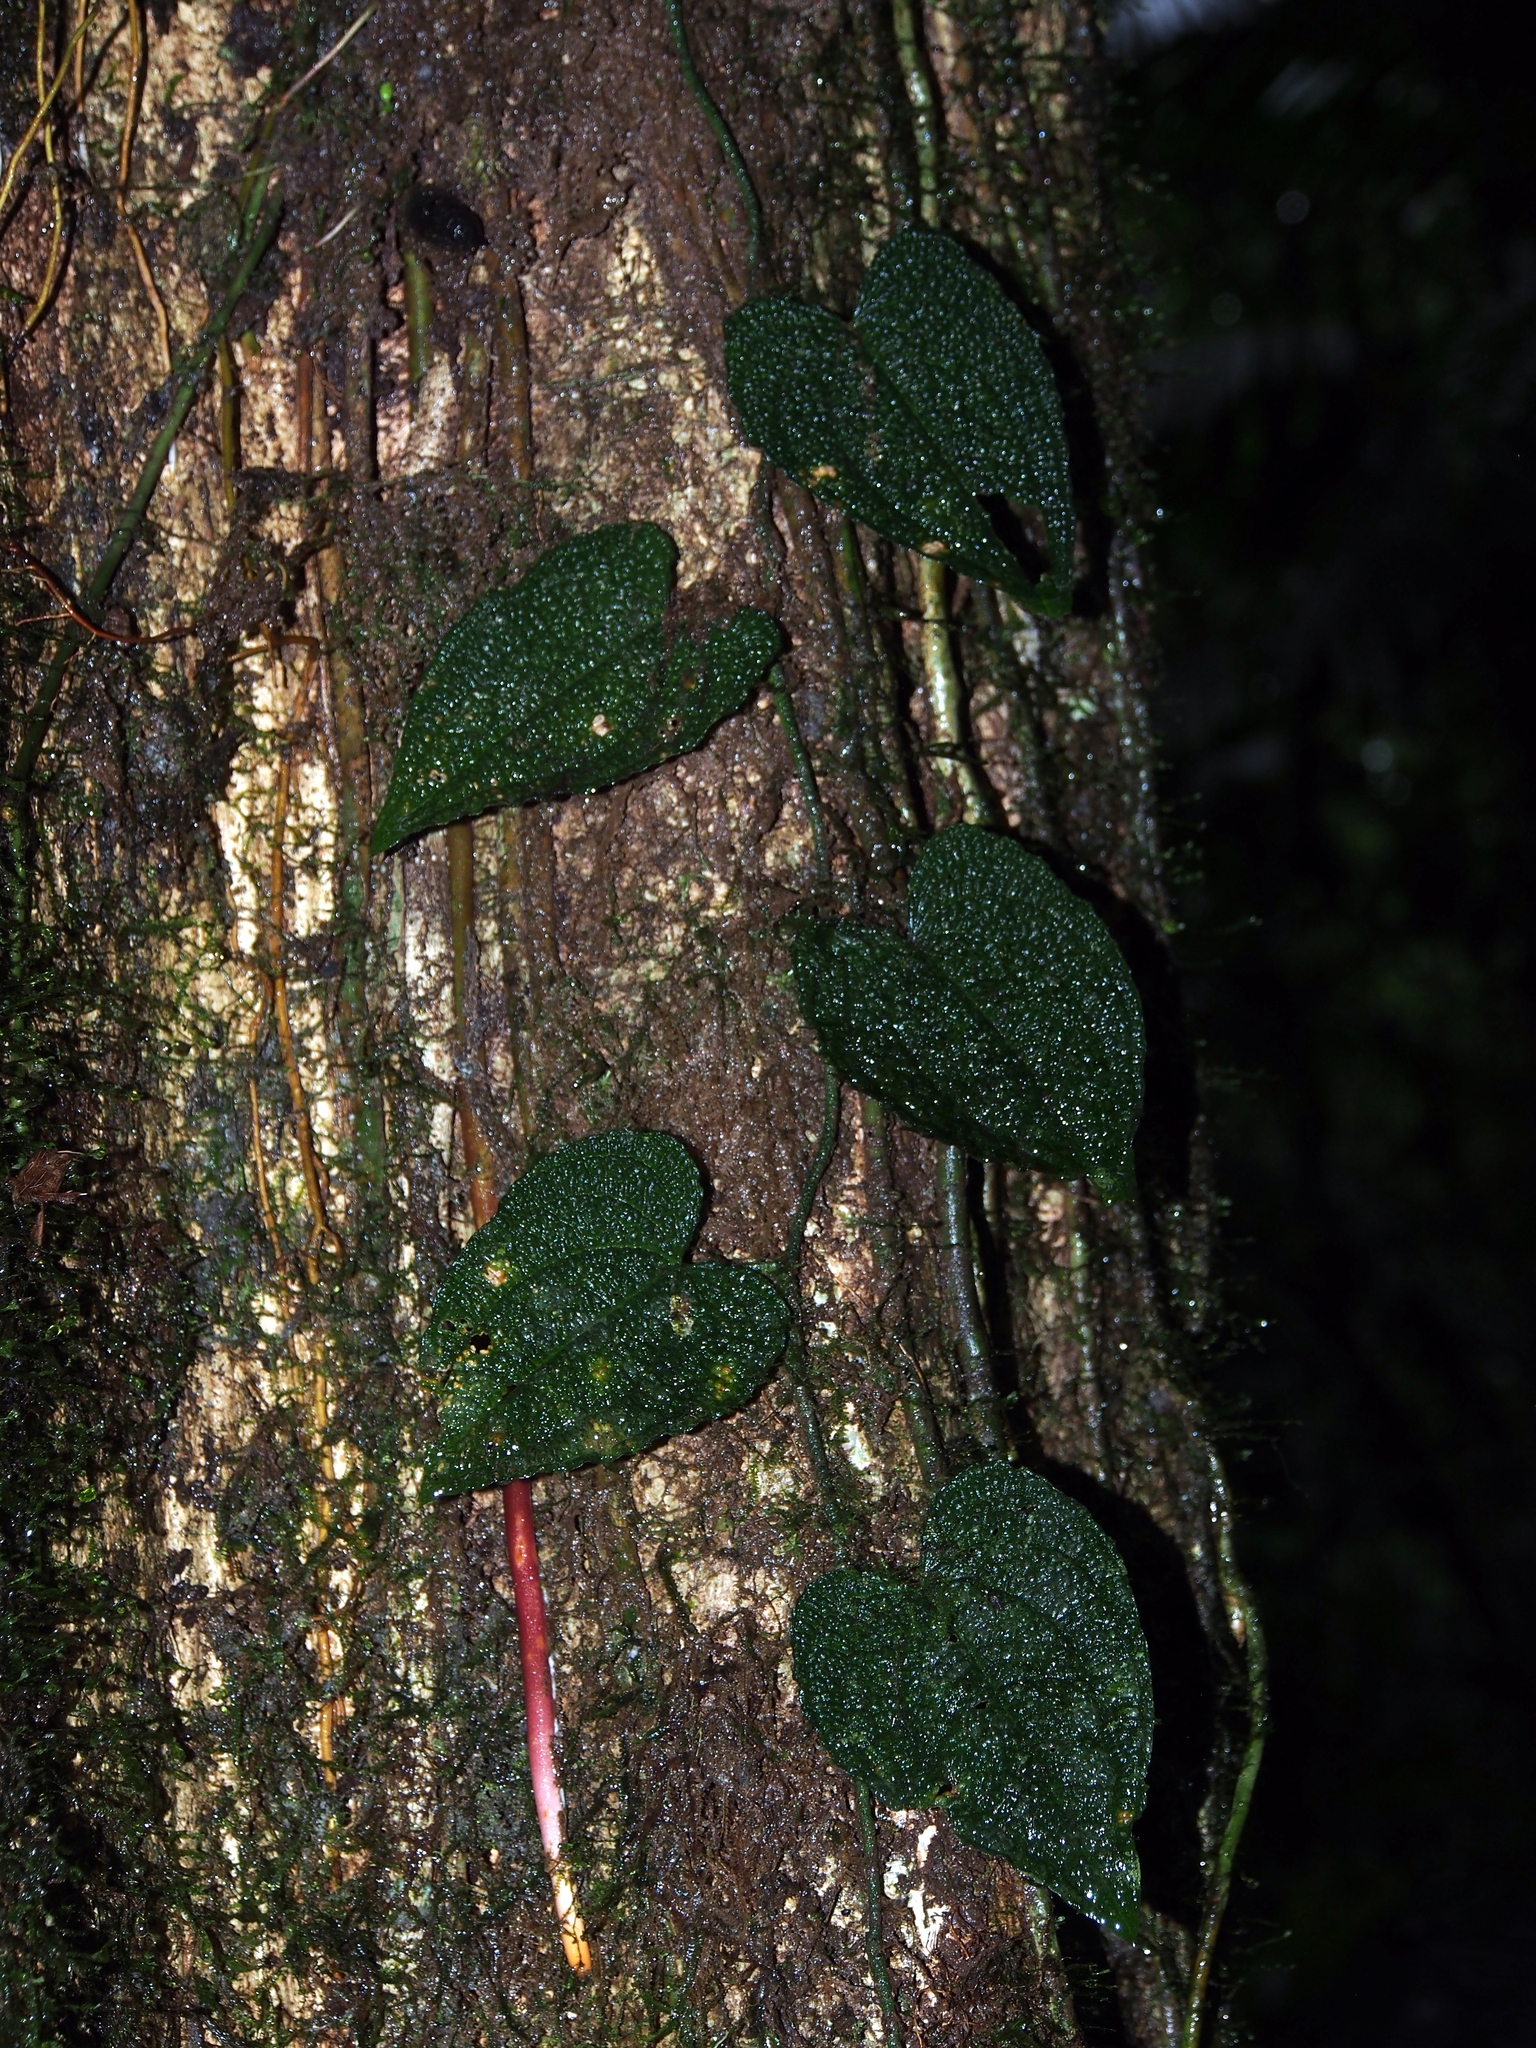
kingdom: Plantae
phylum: Tracheophyta
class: Liliopsida
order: Alismatales
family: Araceae
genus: Anthurium
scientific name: Anthurium clidemioides
